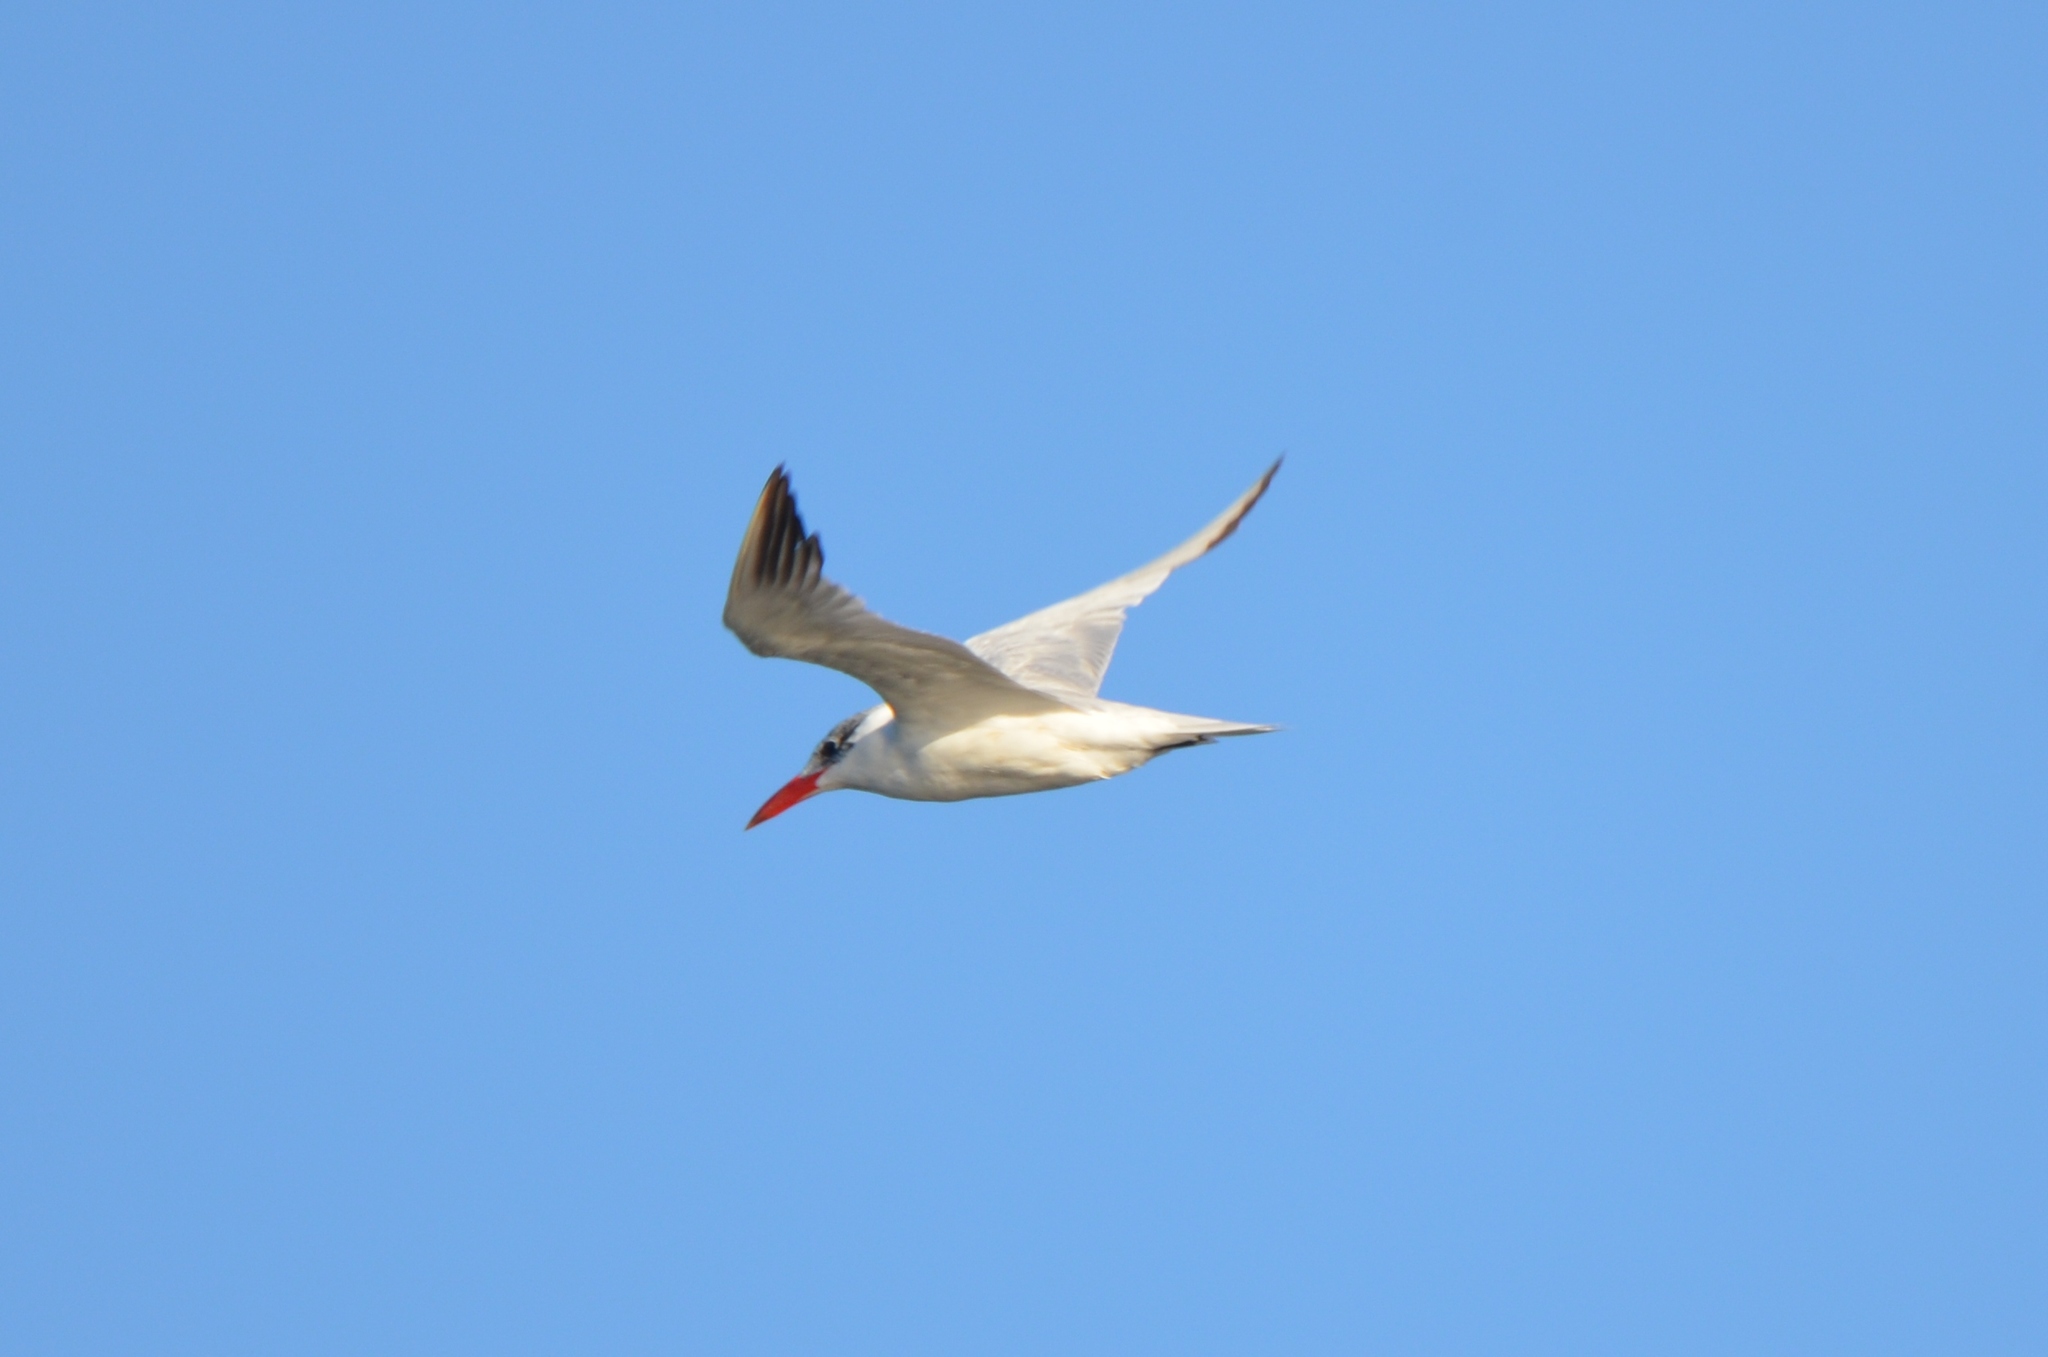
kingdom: Animalia
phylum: Chordata
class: Aves
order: Charadriiformes
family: Laridae
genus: Hydroprogne
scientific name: Hydroprogne caspia
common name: Caspian tern
